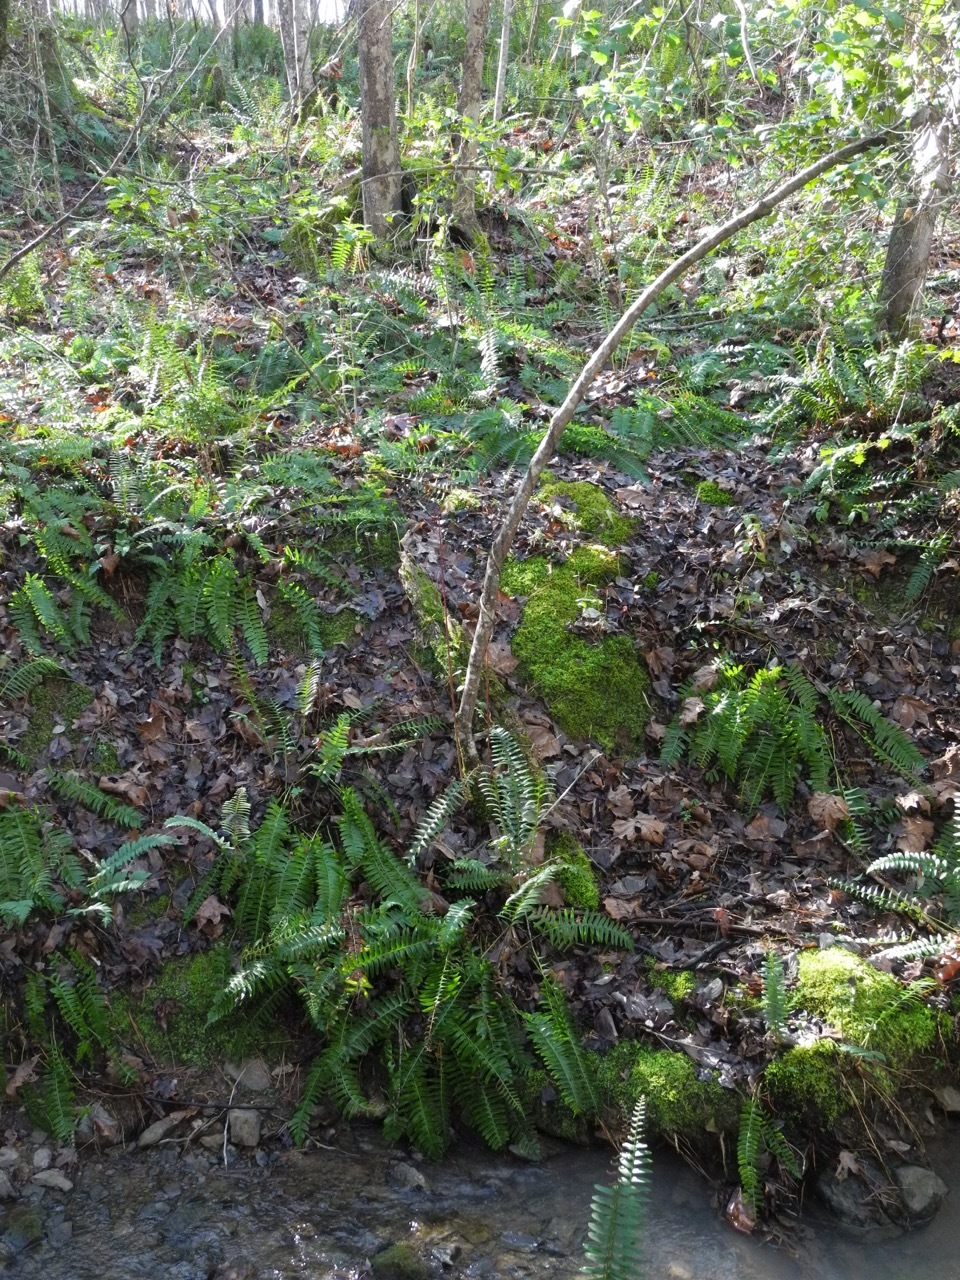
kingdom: Plantae
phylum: Tracheophyta
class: Polypodiopsida
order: Polypodiales
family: Dryopteridaceae
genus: Polystichum
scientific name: Polystichum acrostichoides
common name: Christmas fern
